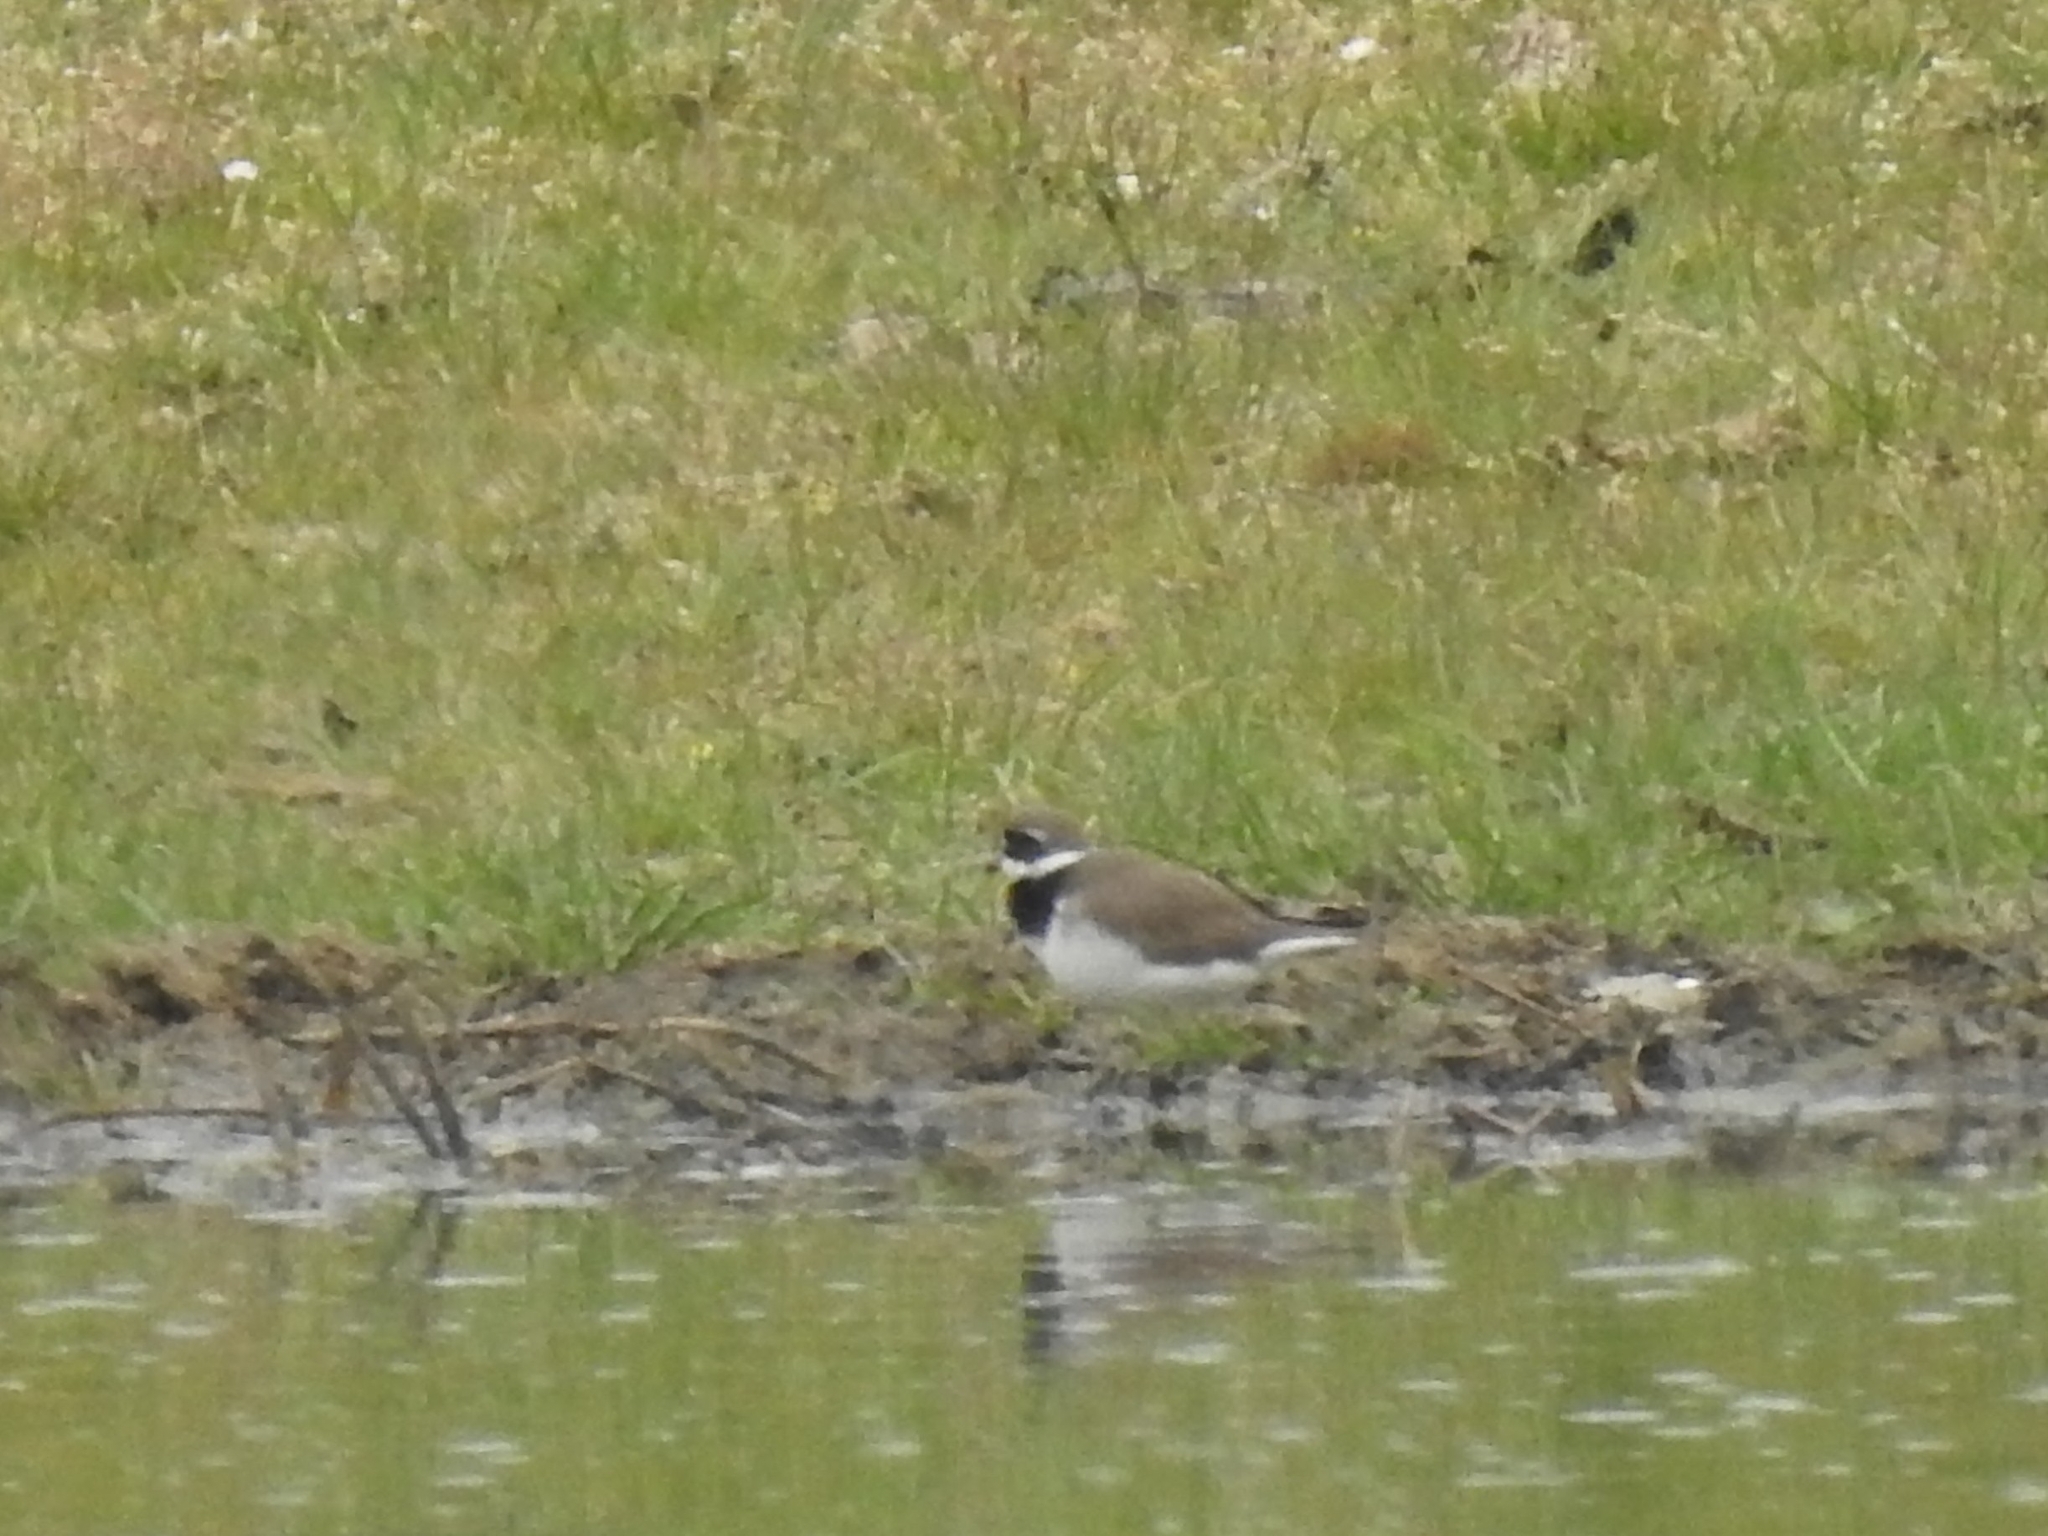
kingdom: Animalia
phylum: Chordata
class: Aves
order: Charadriiformes
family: Charadriidae
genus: Charadrius
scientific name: Charadrius hiaticula
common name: Common ringed plover
